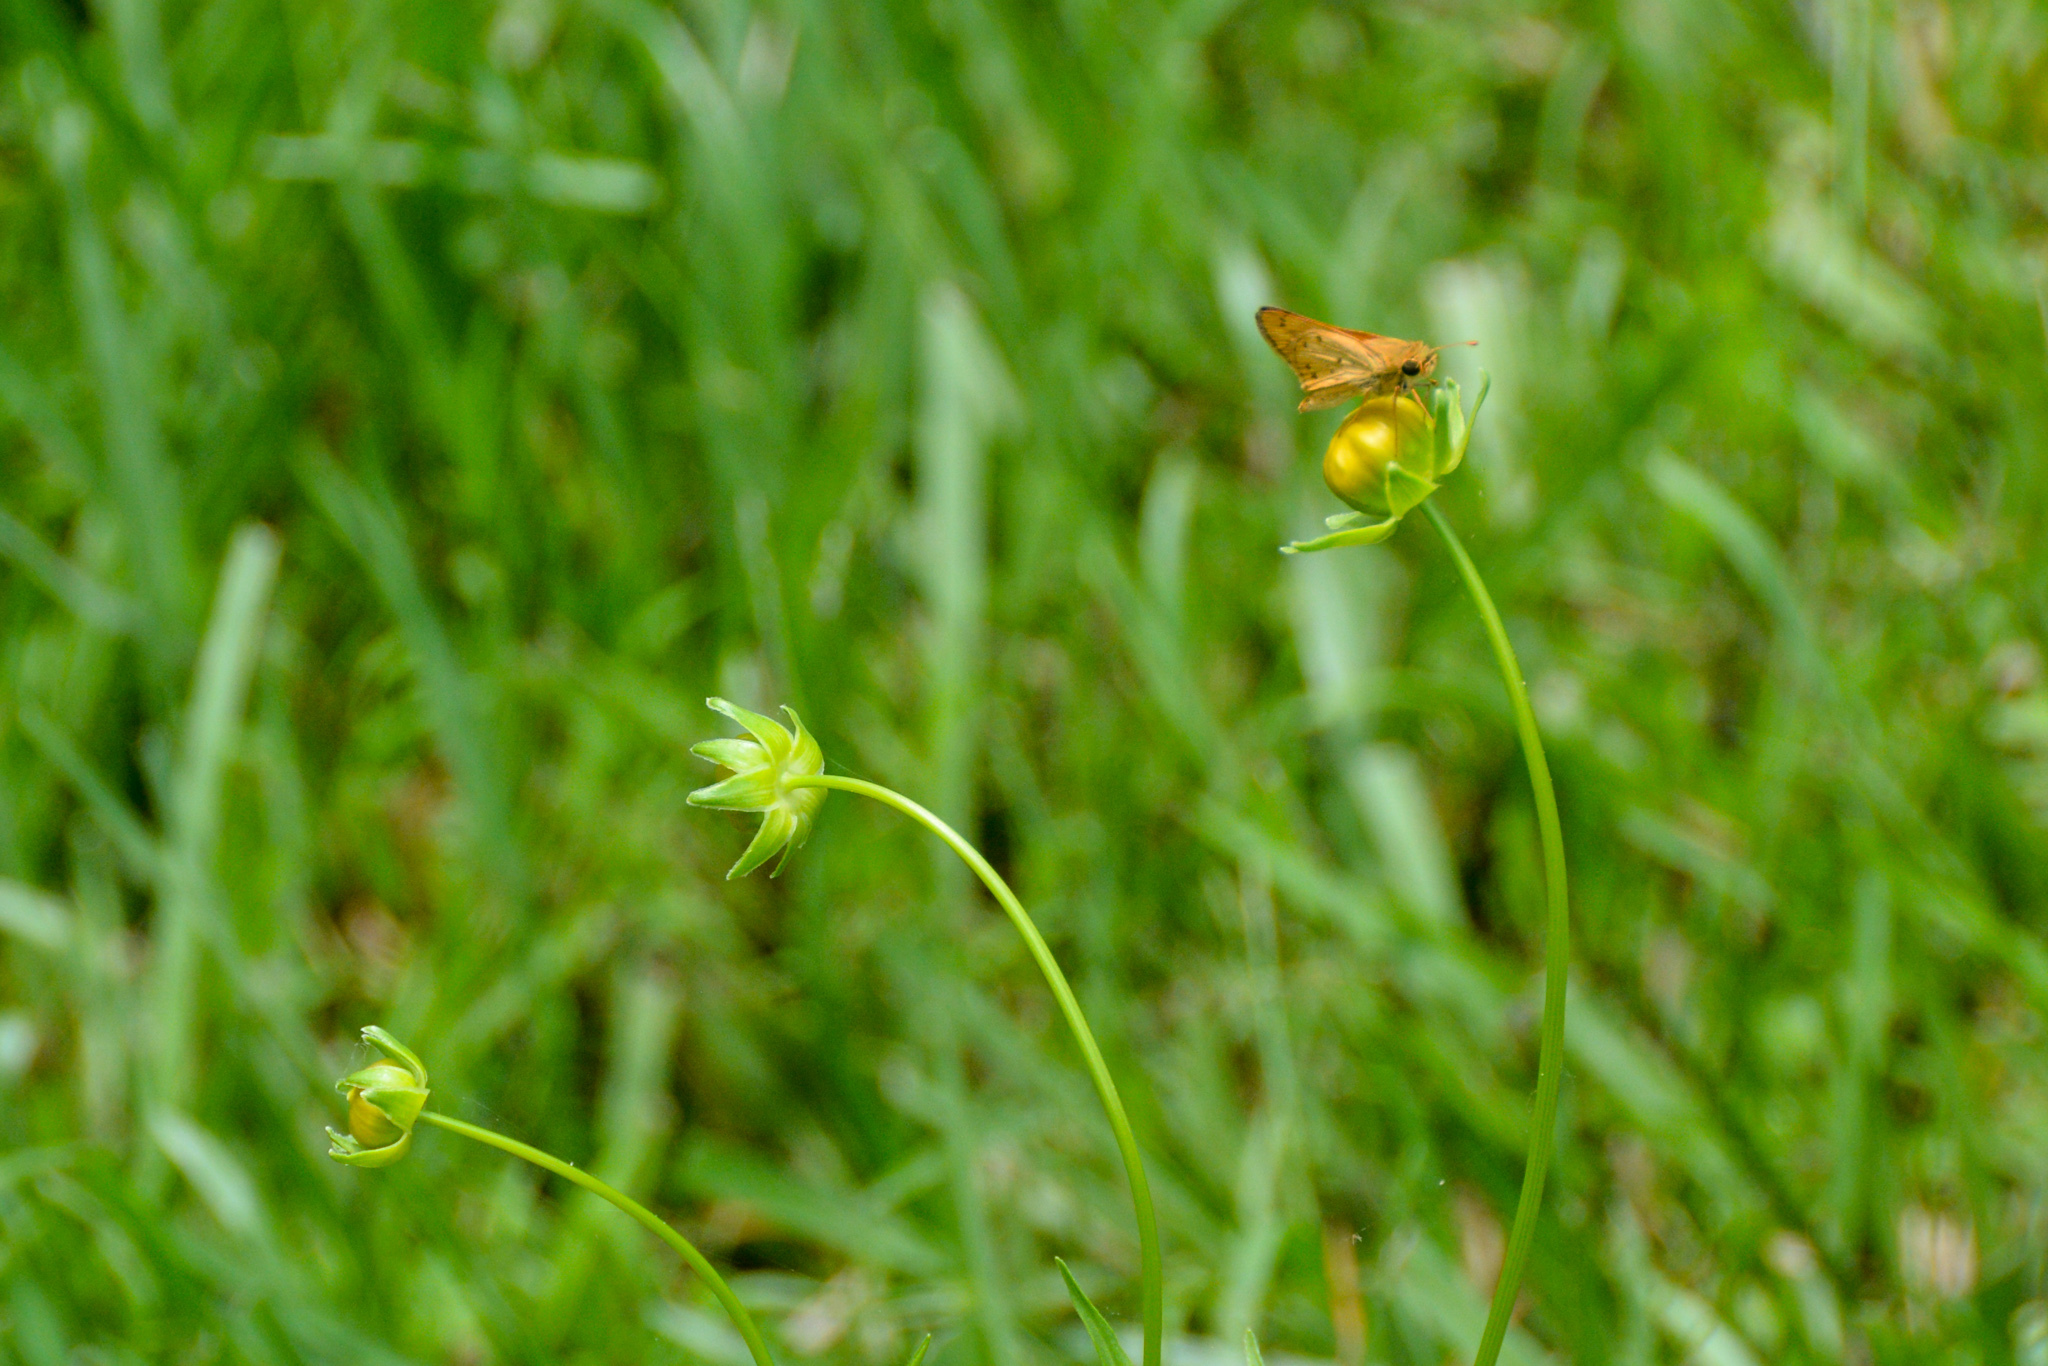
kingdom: Animalia
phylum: Arthropoda
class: Insecta
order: Lepidoptera
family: Hesperiidae
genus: Hylephila
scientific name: Hylephila phyleus
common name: Fiery skipper
